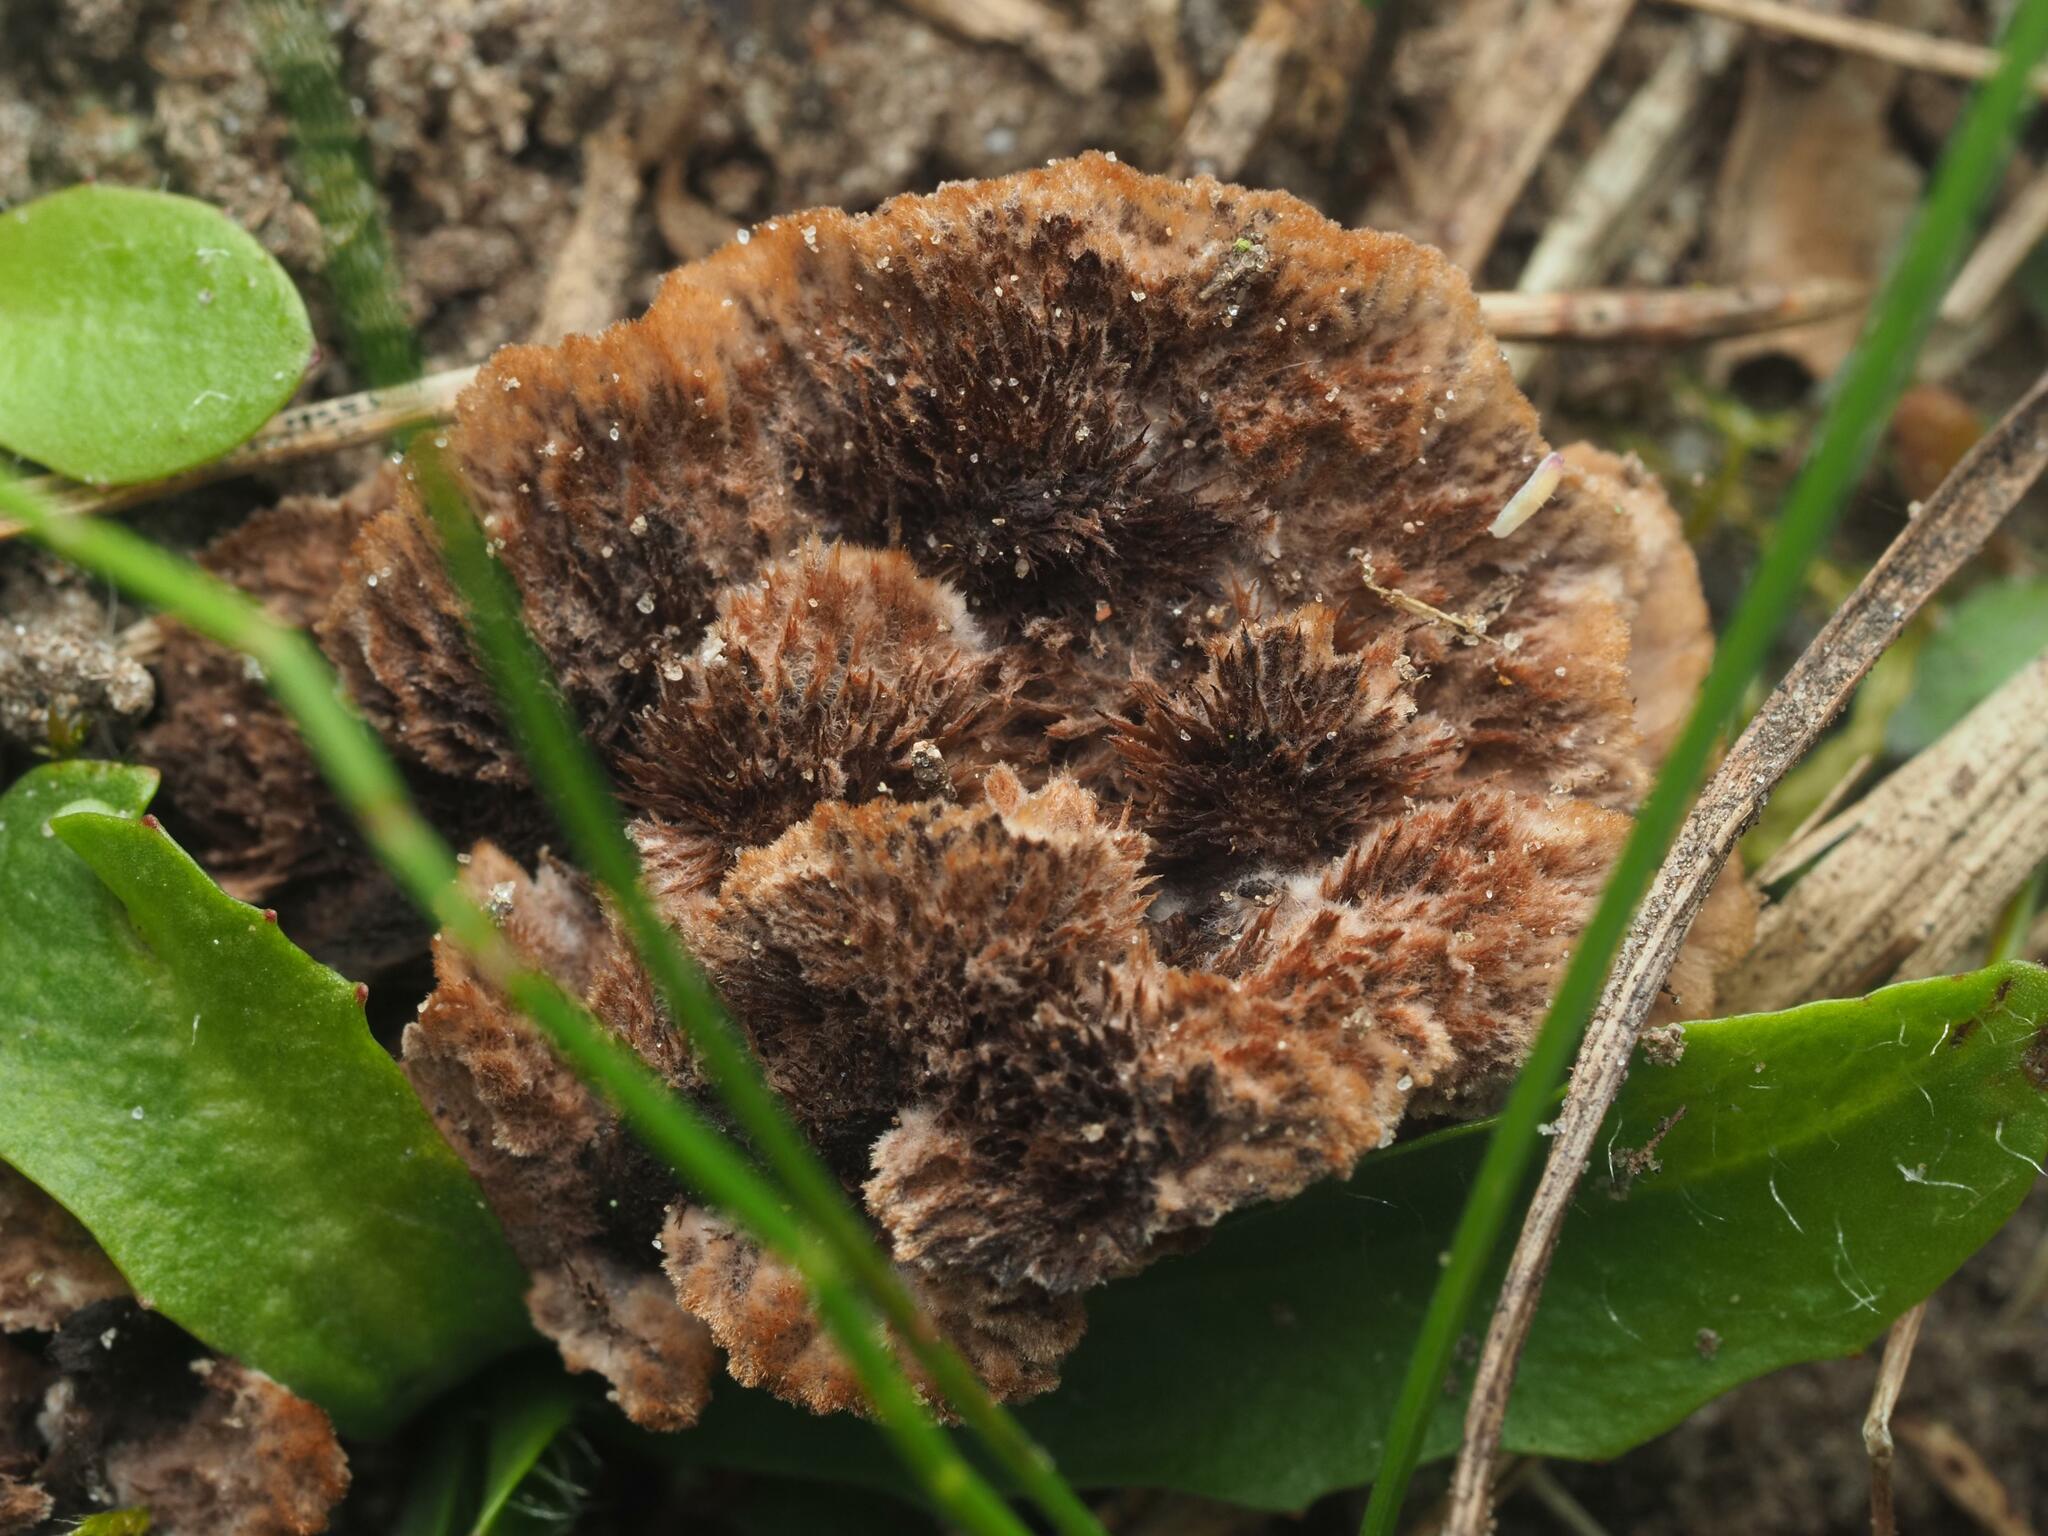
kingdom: Fungi
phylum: Basidiomycota
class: Agaricomycetes
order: Thelephorales
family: Thelephoraceae
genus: Thelephora
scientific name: Thelephora terrestris
